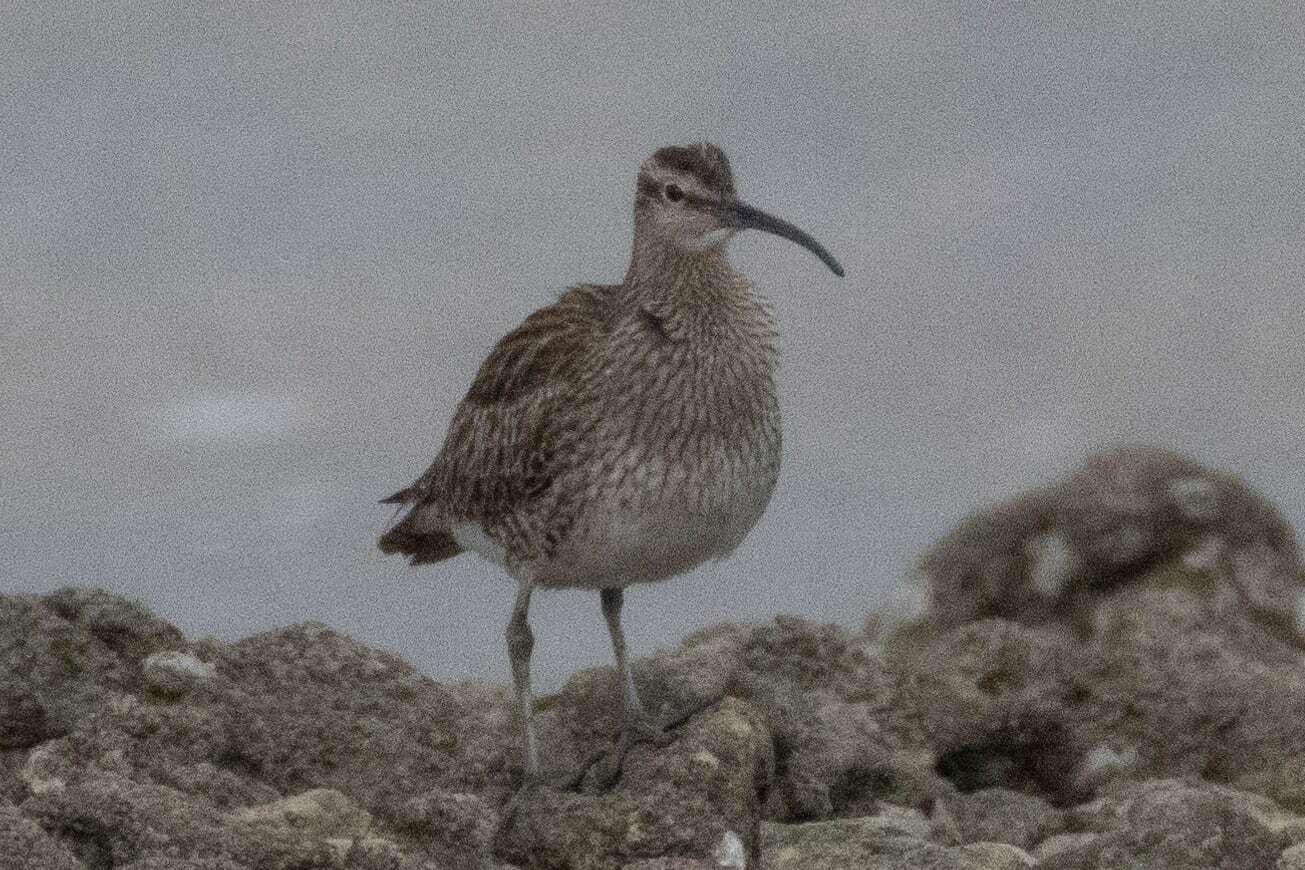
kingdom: Animalia
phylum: Chordata
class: Aves
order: Charadriiformes
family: Scolopacidae
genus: Numenius
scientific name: Numenius phaeopus
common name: Whimbrel
